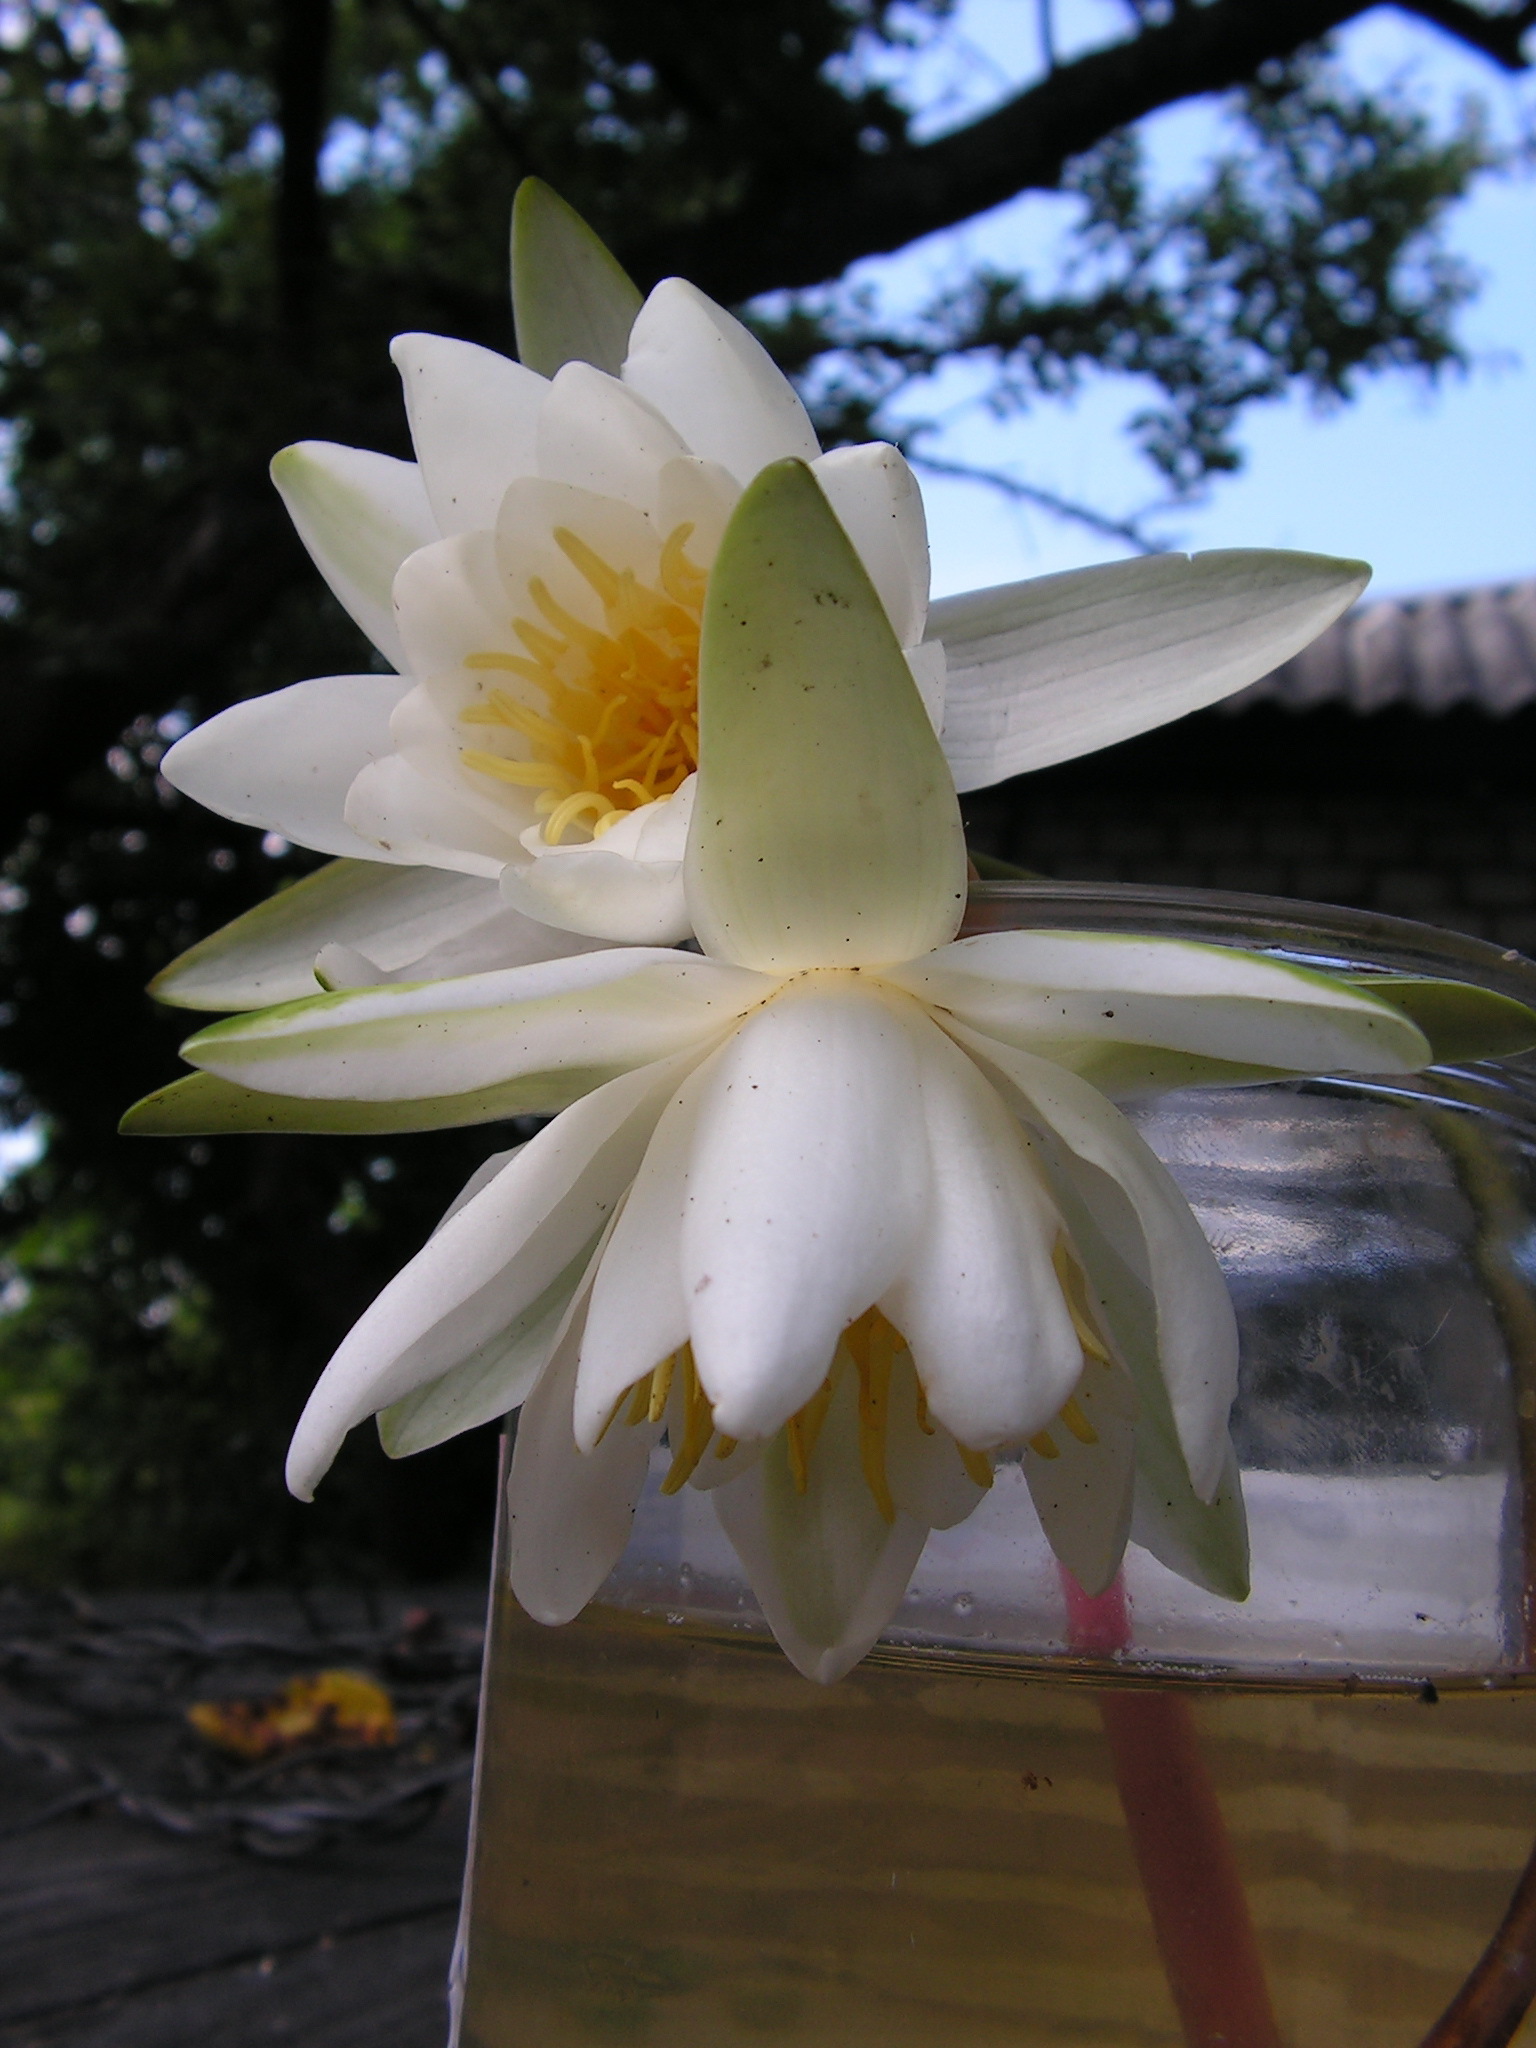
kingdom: Plantae
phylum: Tracheophyta
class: Magnoliopsida
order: Nymphaeales
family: Nymphaeaceae
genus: Nymphaea
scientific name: Nymphaea alba
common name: White water-lily
